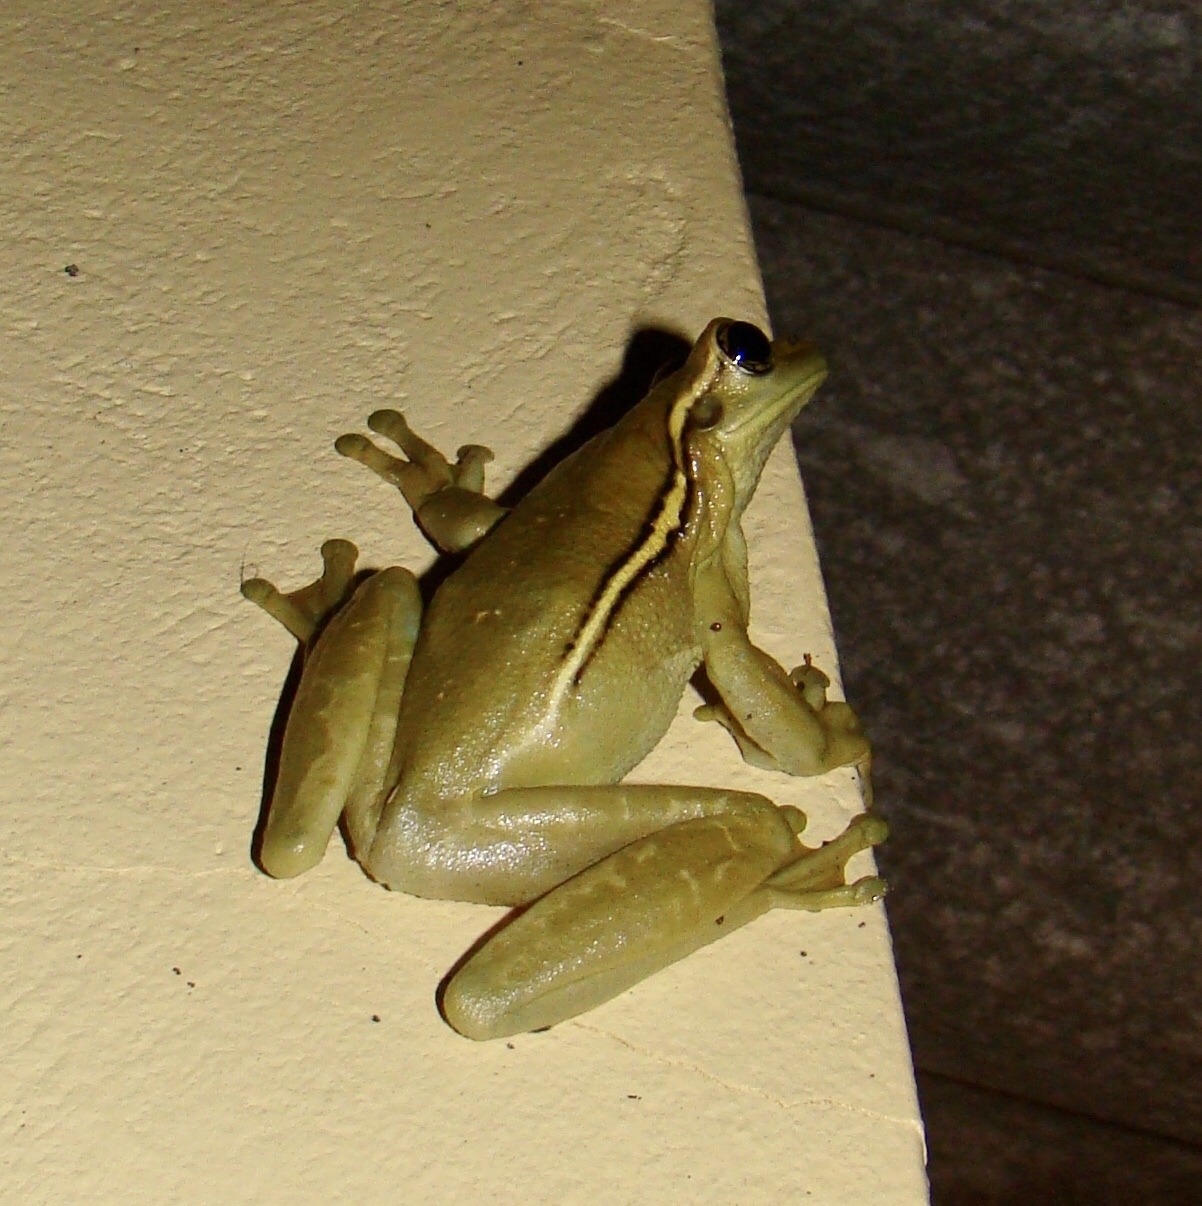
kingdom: Animalia
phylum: Chordata
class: Amphibia
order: Anura
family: Hylidae
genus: Trachycephalus
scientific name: Trachycephalus mesophaeus
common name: Porto alegre golden-eyed treefrog
